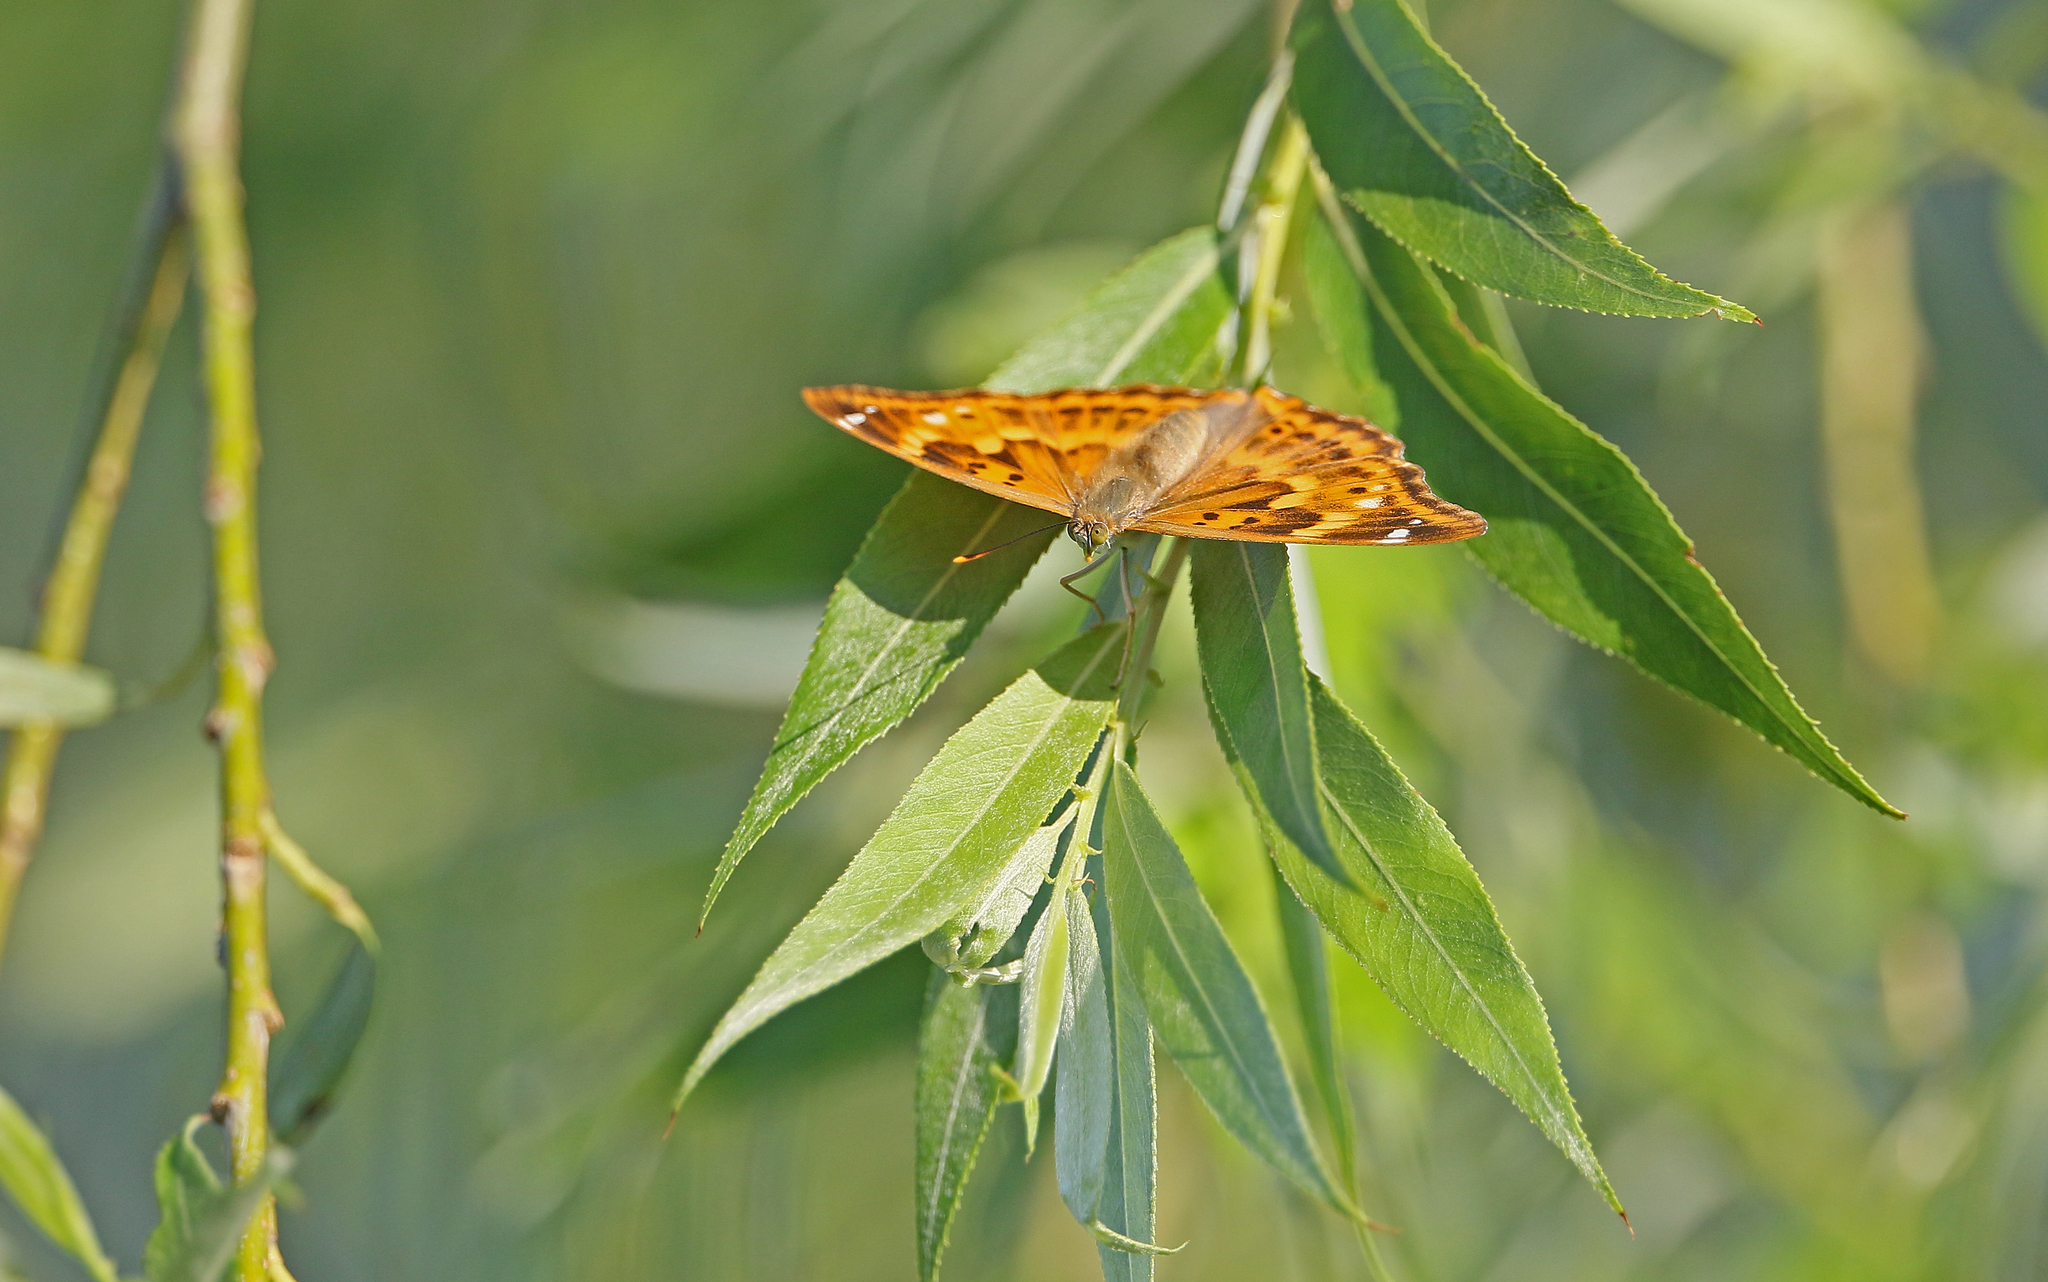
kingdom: Animalia
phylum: Arthropoda
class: Insecta
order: Lepidoptera
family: Nymphalidae
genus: Apatura
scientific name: Apatura ilia
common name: Lesser purple emperor
